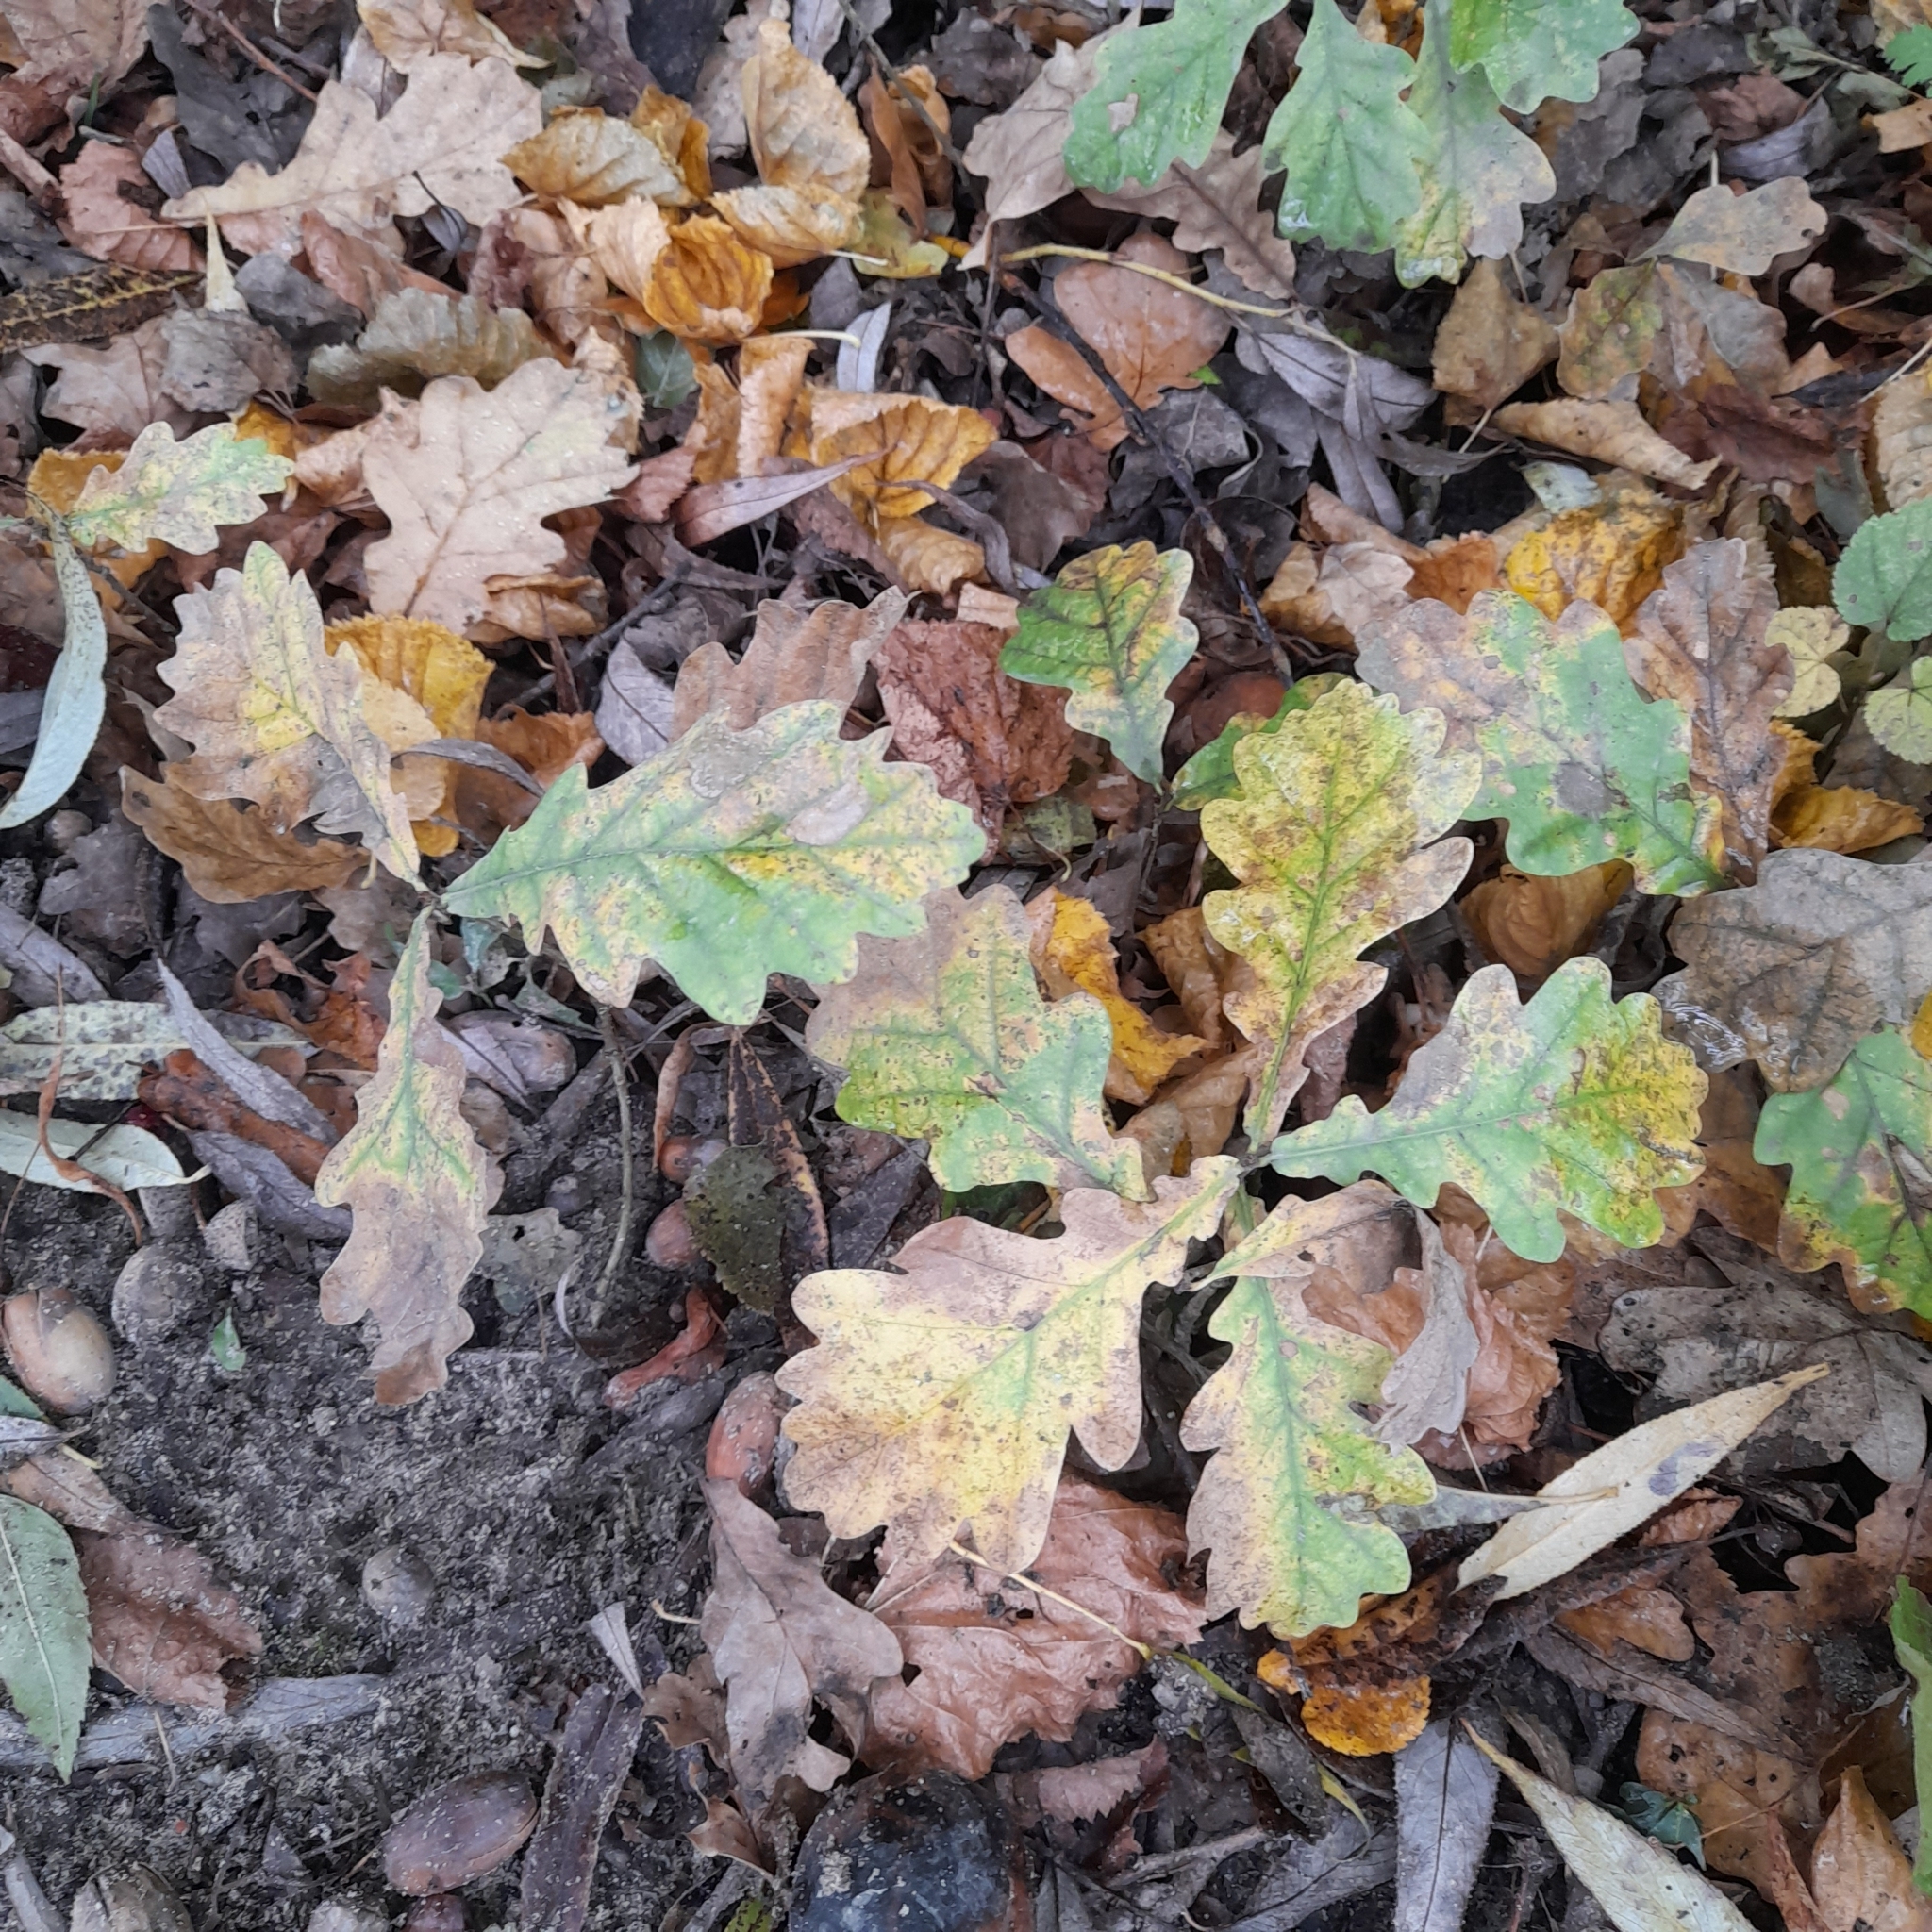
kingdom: Plantae
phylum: Tracheophyta
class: Magnoliopsida
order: Fagales
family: Fagaceae
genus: Quercus
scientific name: Quercus robur
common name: Pedunculate oak
